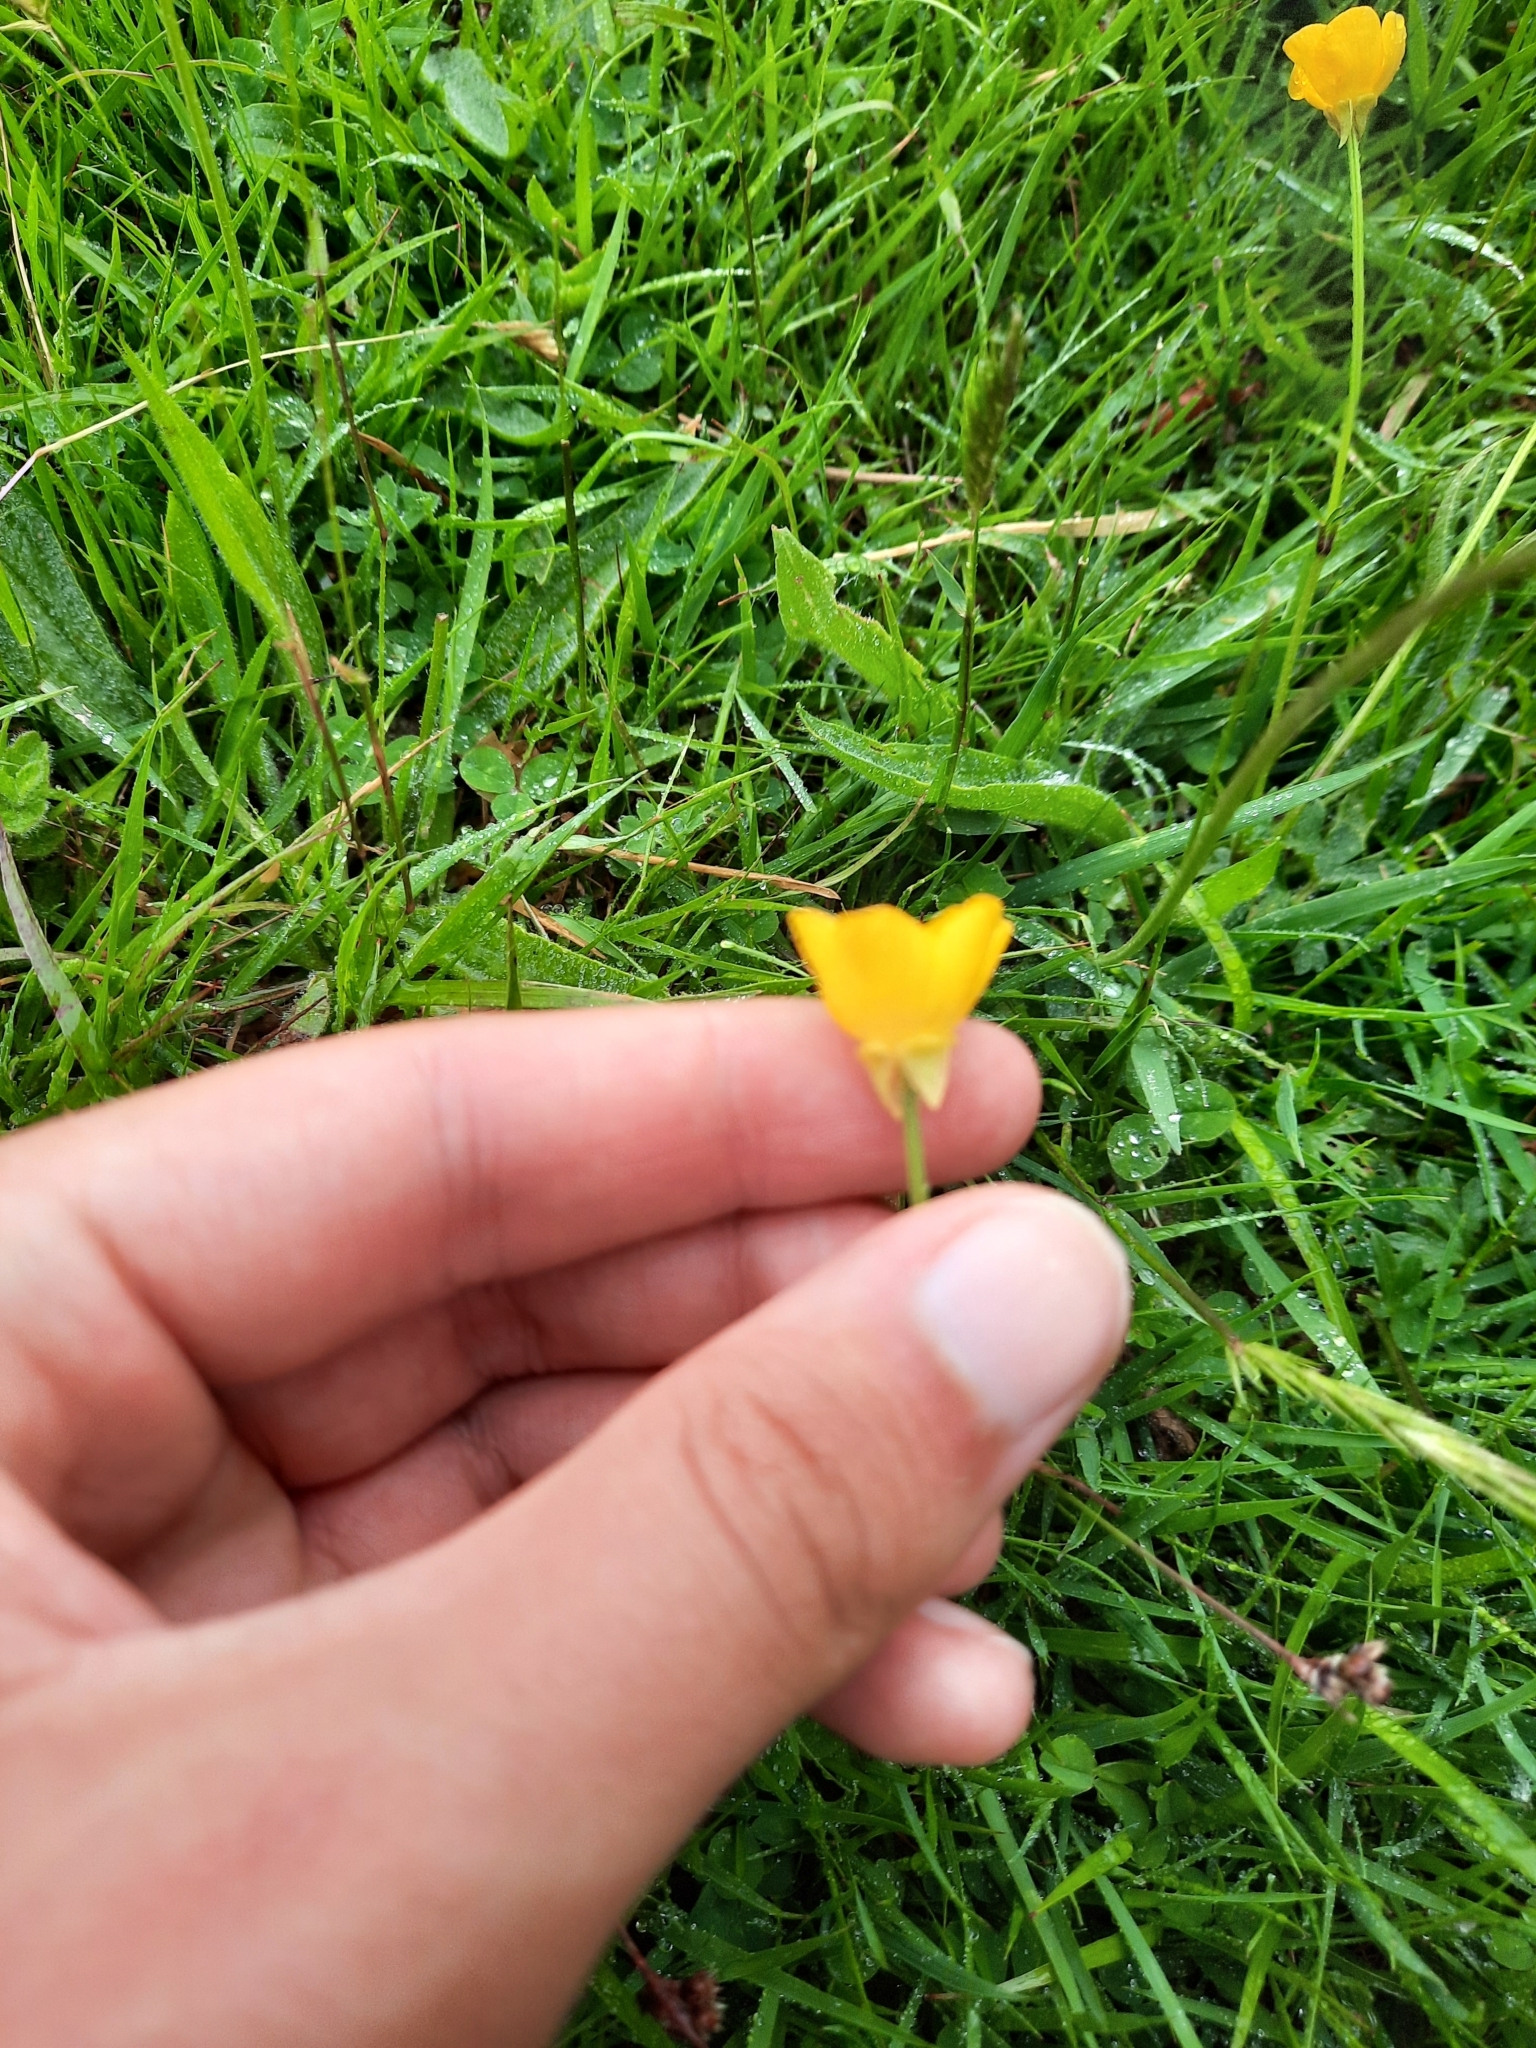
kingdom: Plantae
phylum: Tracheophyta
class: Magnoliopsida
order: Ranunculales
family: Ranunculaceae
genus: Ranunculus
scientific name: Ranunculus bulbosus
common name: Bulbous buttercup
